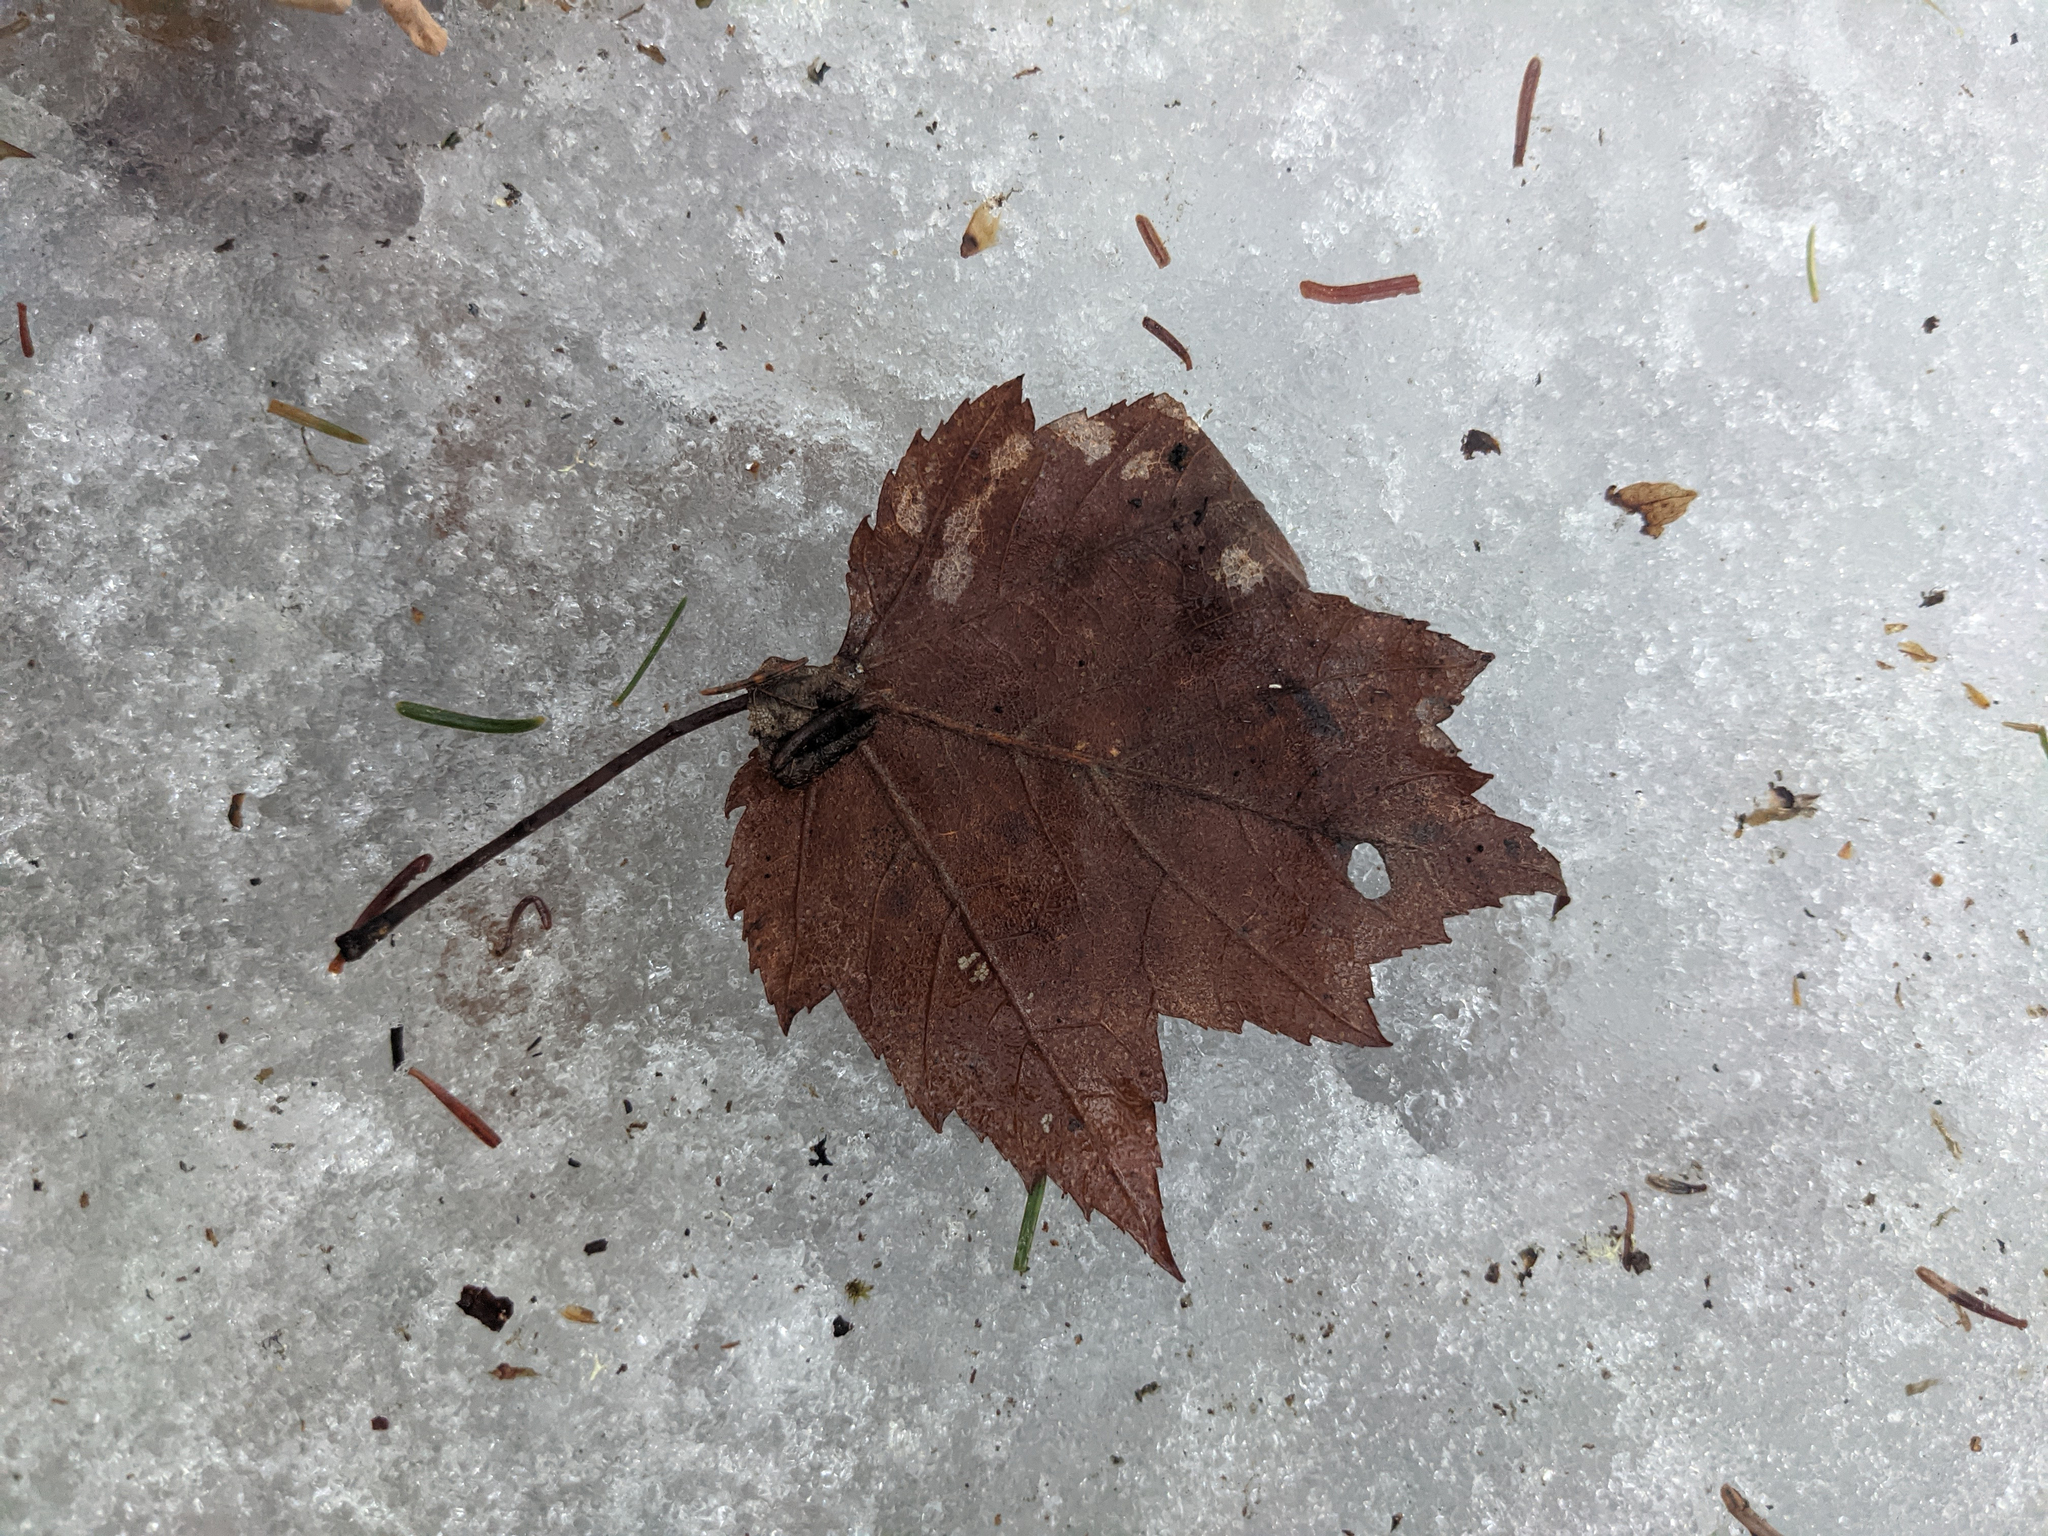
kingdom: Plantae
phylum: Tracheophyta
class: Magnoliopsida
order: Sapindales
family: Sapindaceae
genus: Acer
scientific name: Acer rubrum
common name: Red maple
